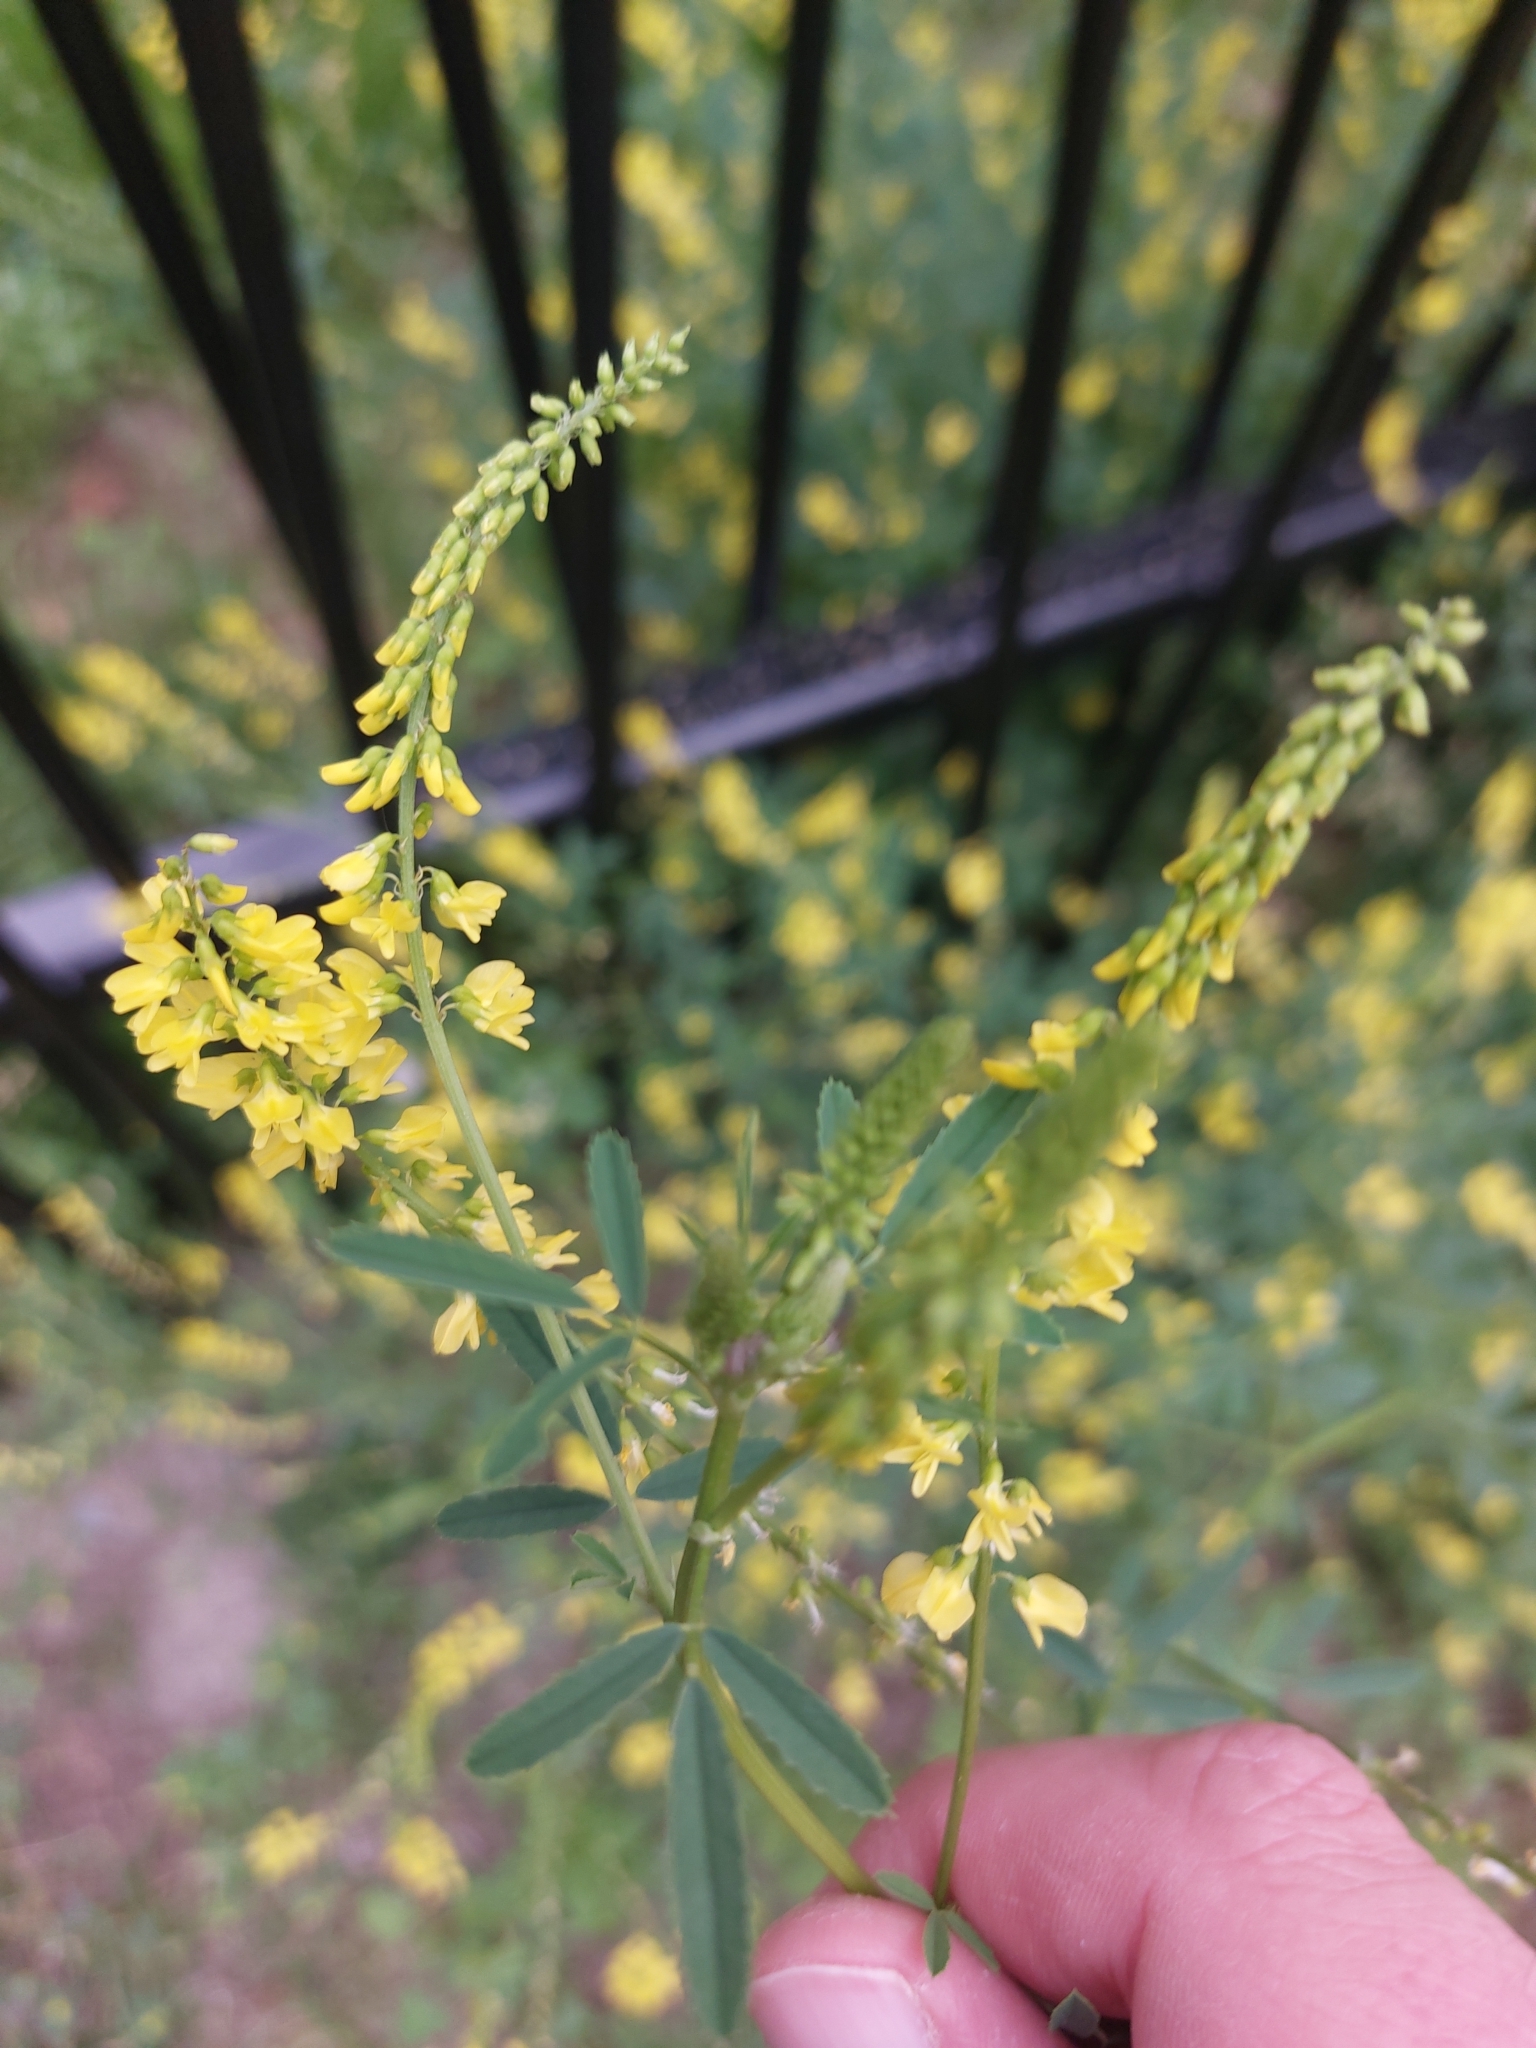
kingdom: Plantae
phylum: Tracheophyta
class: Magnoliopsida
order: Fabales
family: Fabaceae
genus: Melilotus
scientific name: Melilotus officinalis
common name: Sweetclover
